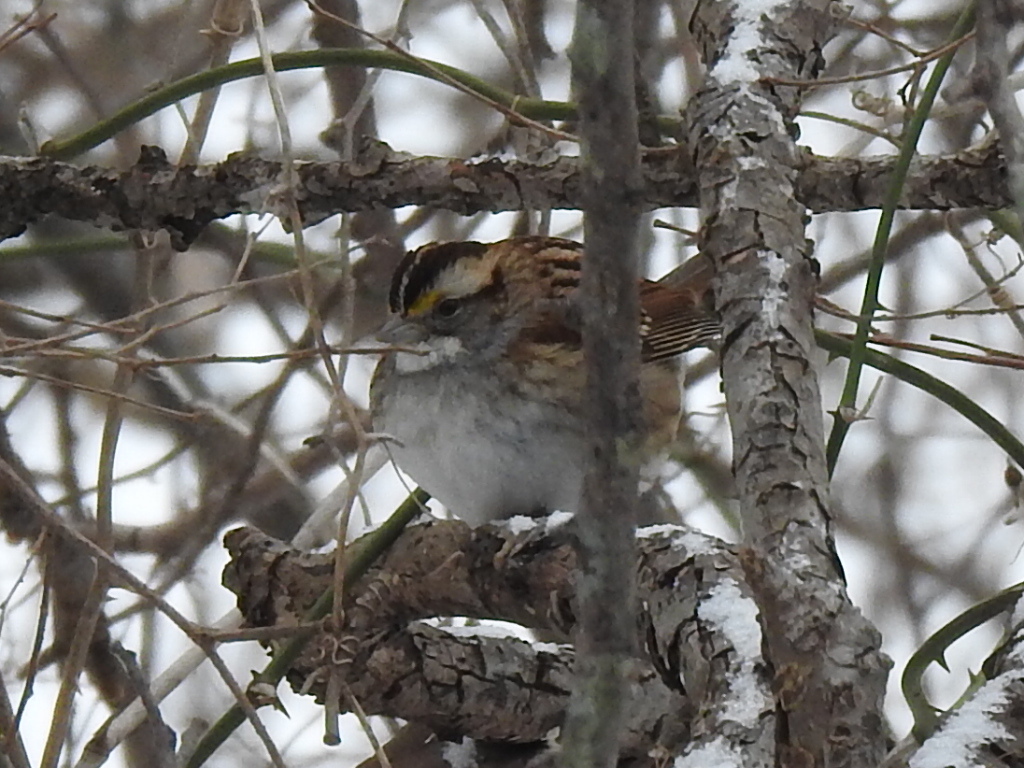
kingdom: Animalia
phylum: Chordata
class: Aves
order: Passeriformes
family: Passerellidae
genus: Zonotrichia
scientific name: Zonotrichia albicollis
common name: White-throated sparrow
